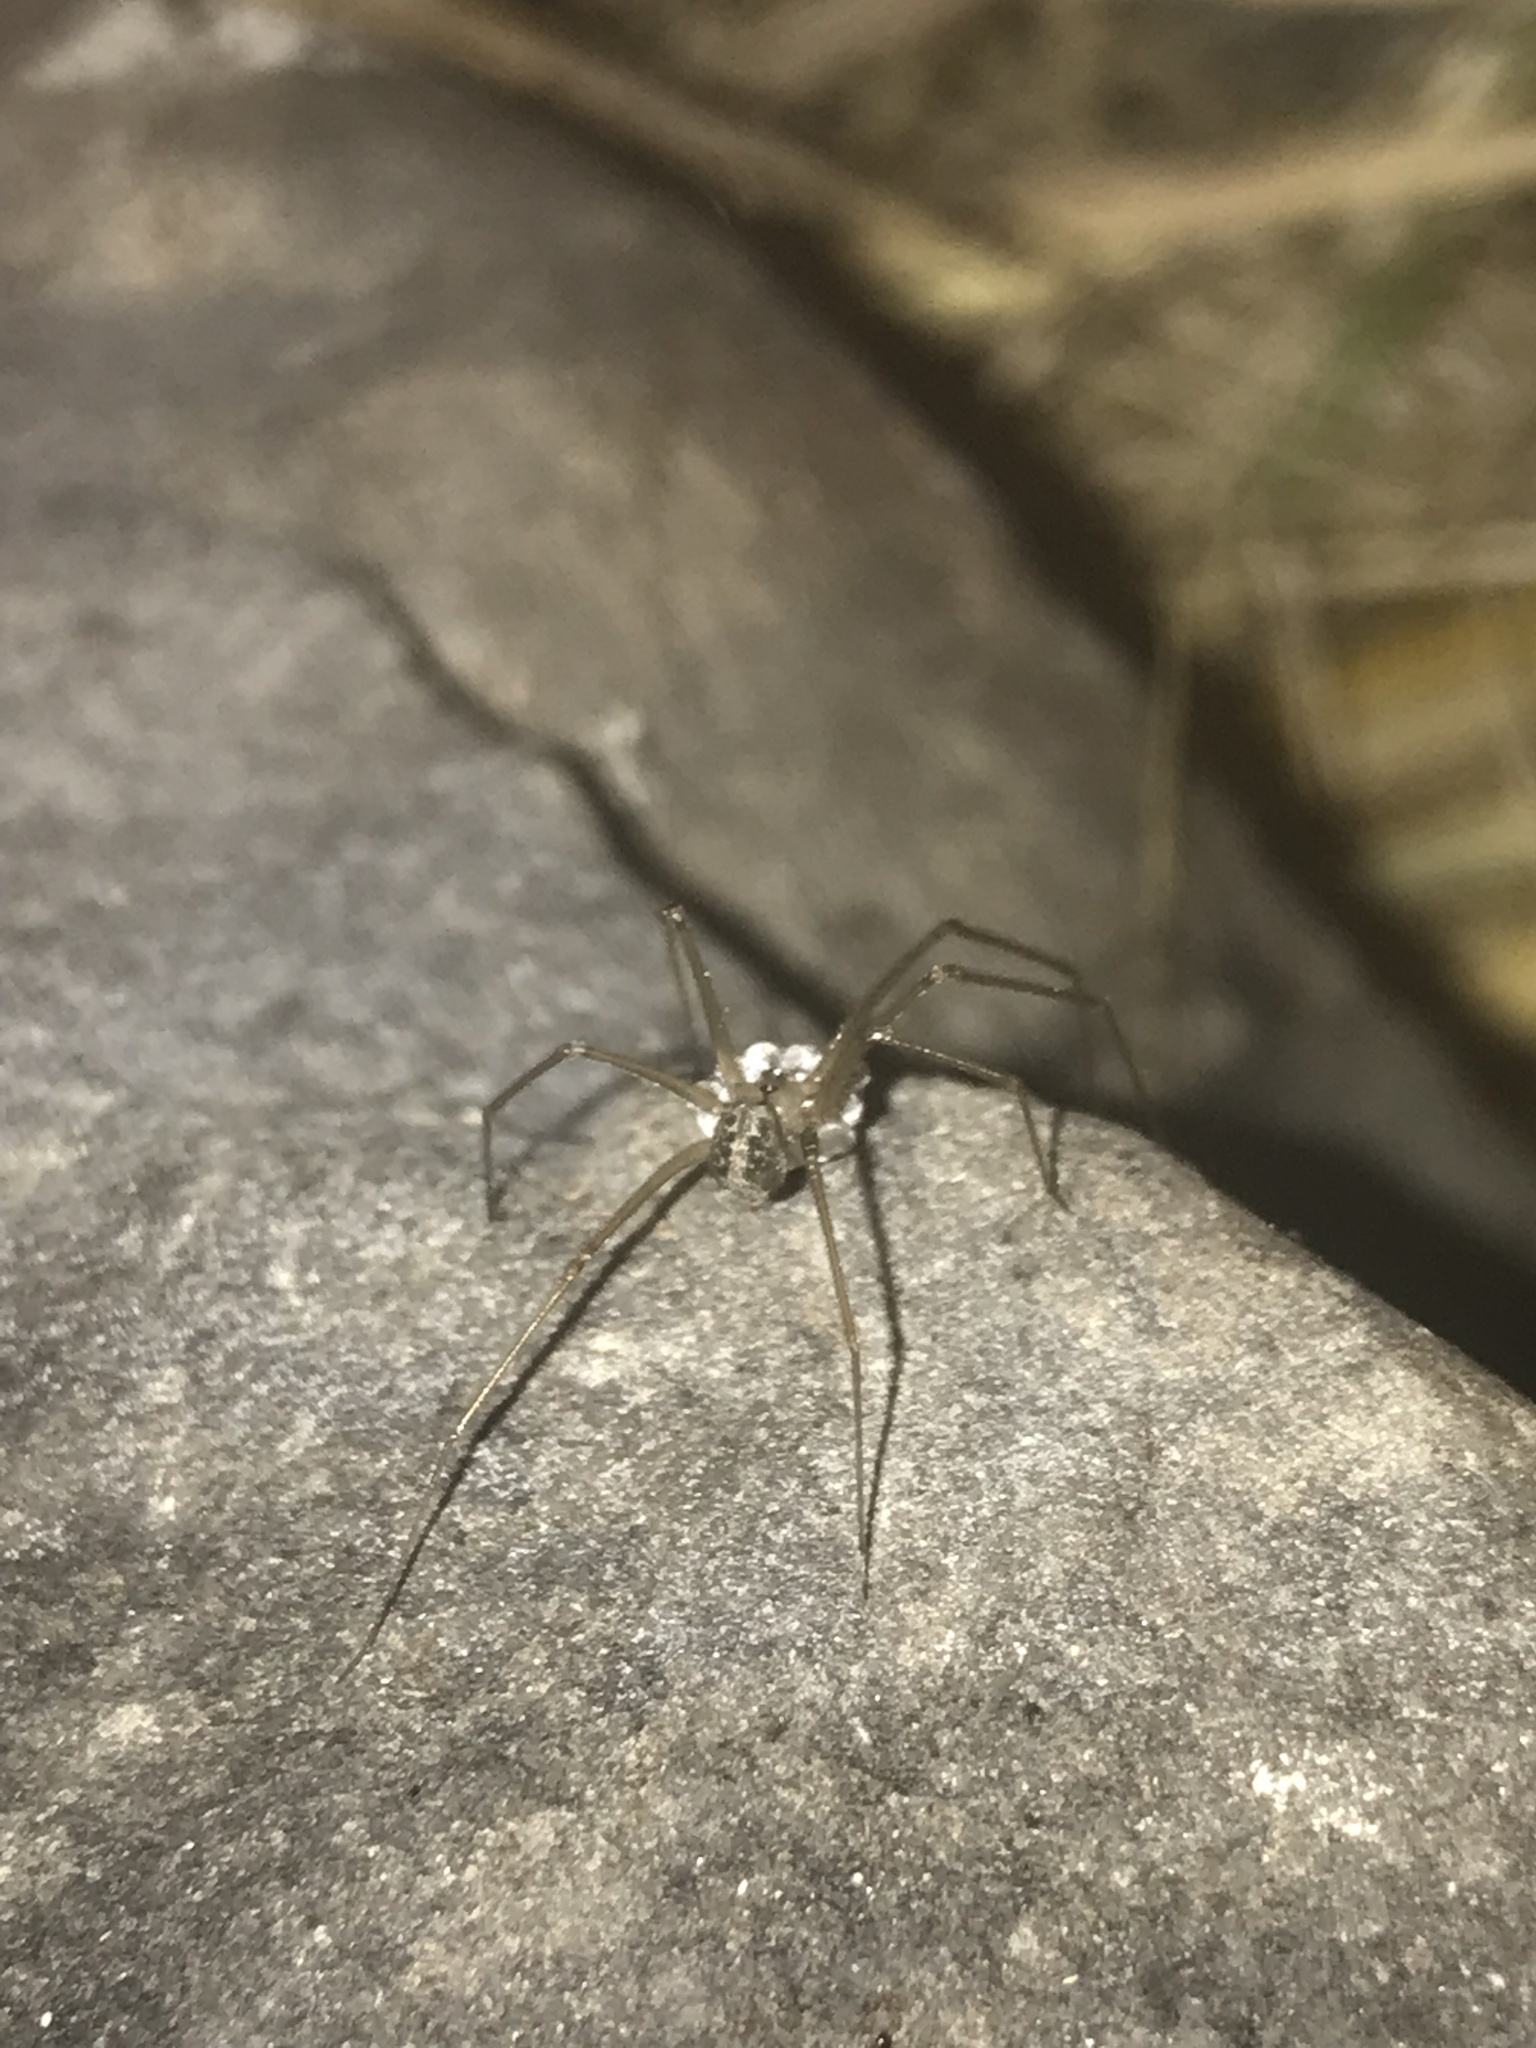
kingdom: Animalia
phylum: Arthropoda
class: Arachnida
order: Araneae
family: Pholcidae
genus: Psilochorus
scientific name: Psilochorus hesperus
